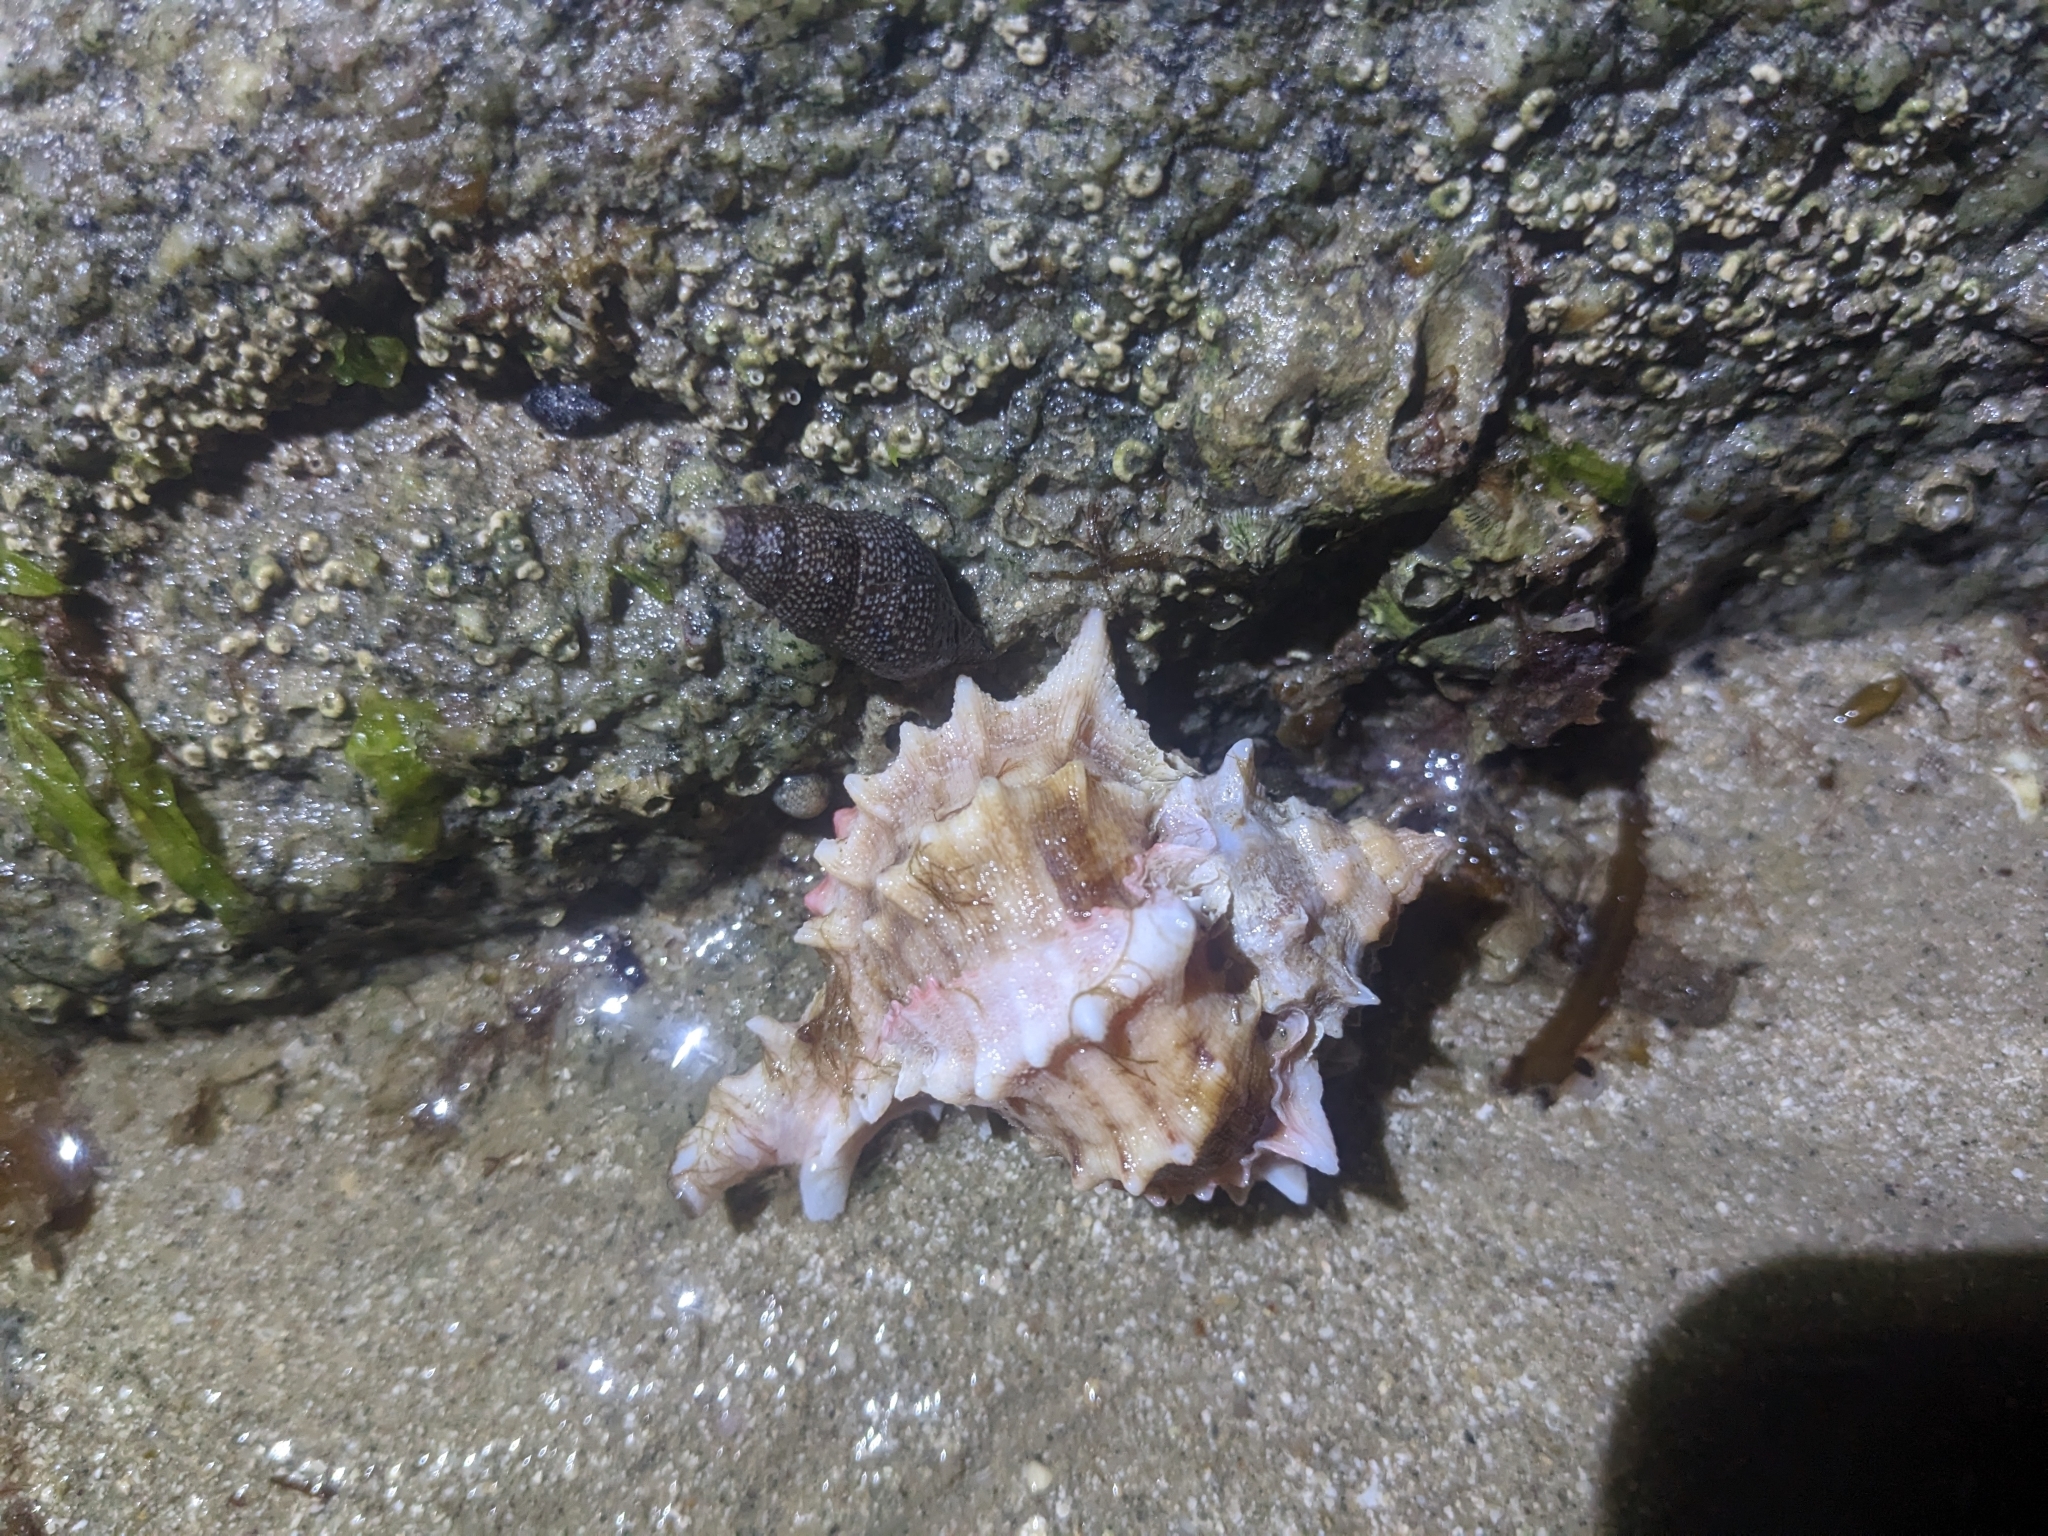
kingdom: Animalia
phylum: Mollusca
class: Gastropoda
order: Neogastropoda
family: Muricidae
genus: Phyllonotus
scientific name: Phyllonotus erythrostomus
